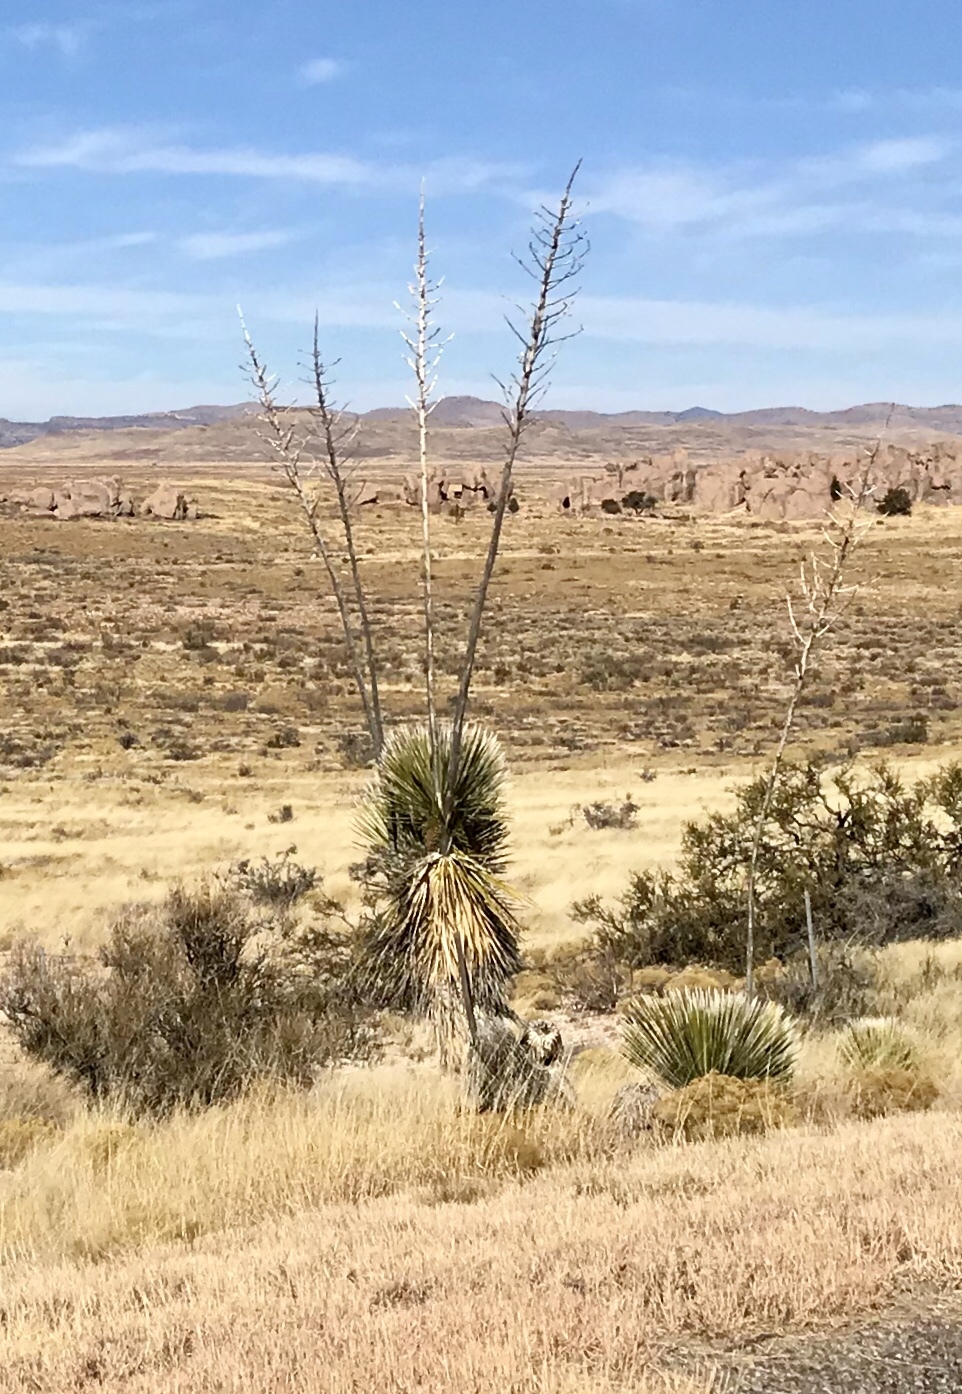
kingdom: Plantae
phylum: Tracheophyta
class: Liliopsida
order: Asparagales
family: Asparagaceae
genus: Yucca
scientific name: Yucca elata
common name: Palmella
